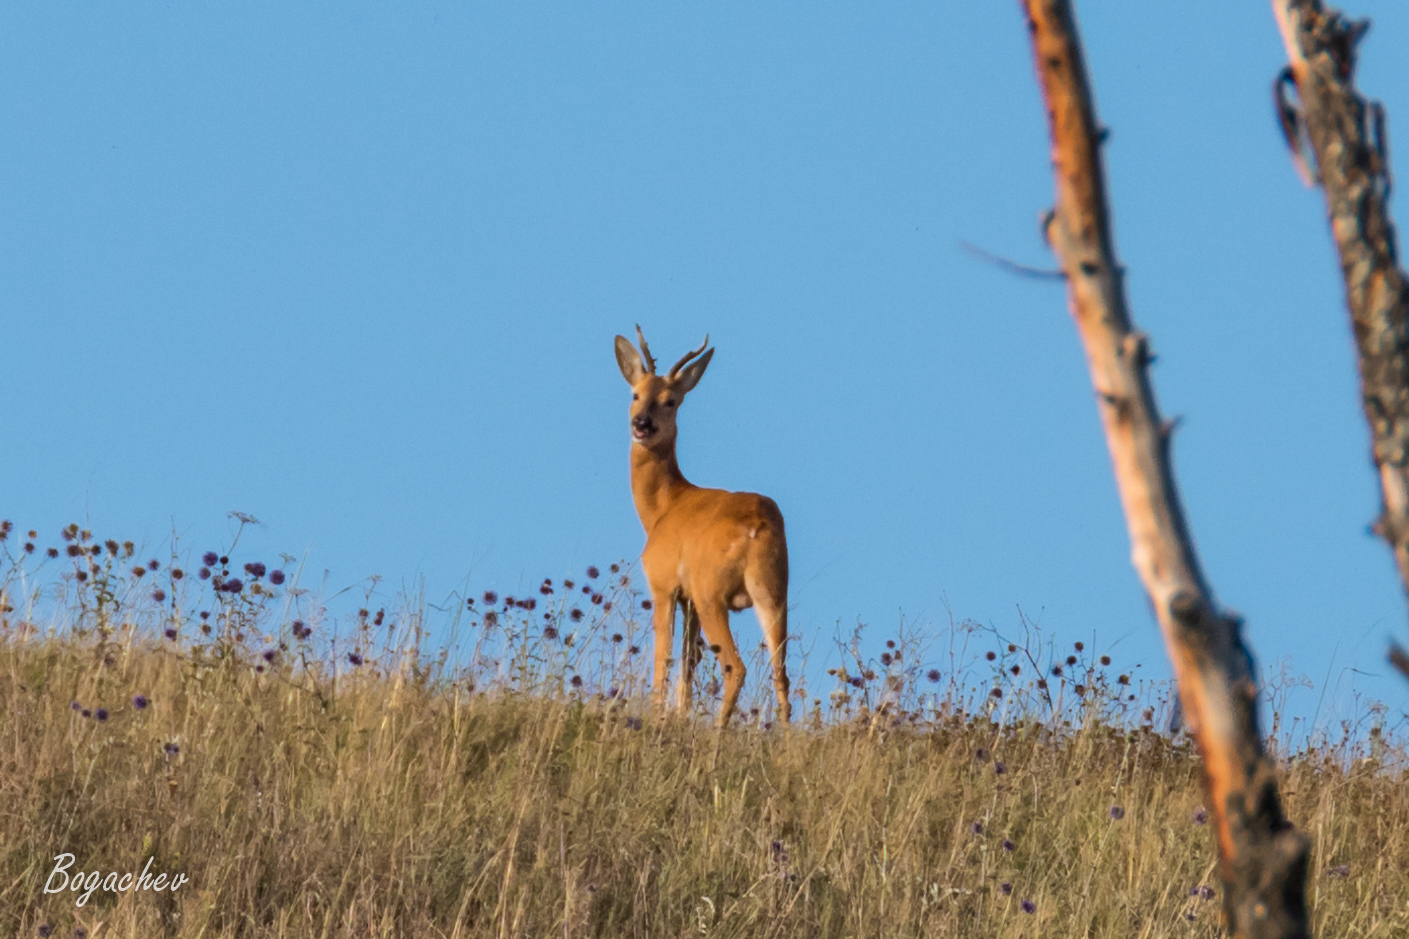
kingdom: Animalia
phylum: Chordata
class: Mammalia
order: Artiodactyla
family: Cervidae
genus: Capreolus
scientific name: Capreolus pygargus
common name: Siberian roe
